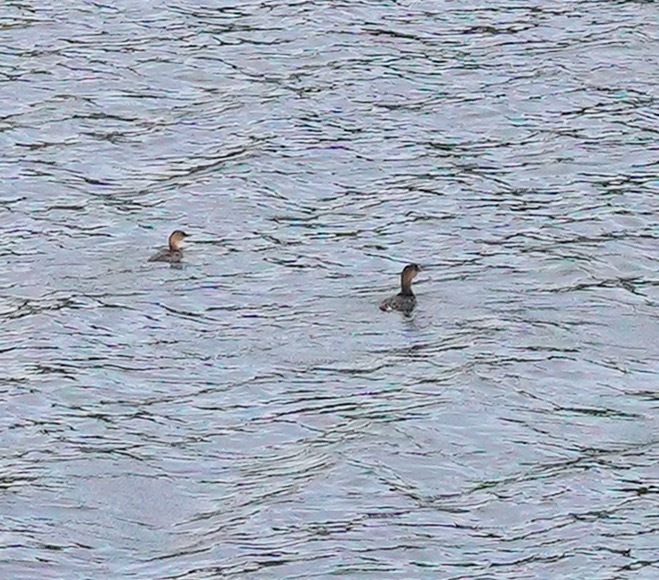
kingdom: Animalia
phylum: Chordata
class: Aves
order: Podicipediformes
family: Podicipedidae
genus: Podilymbus
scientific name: Podilymbus podiceps
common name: Pied-billed grebe
